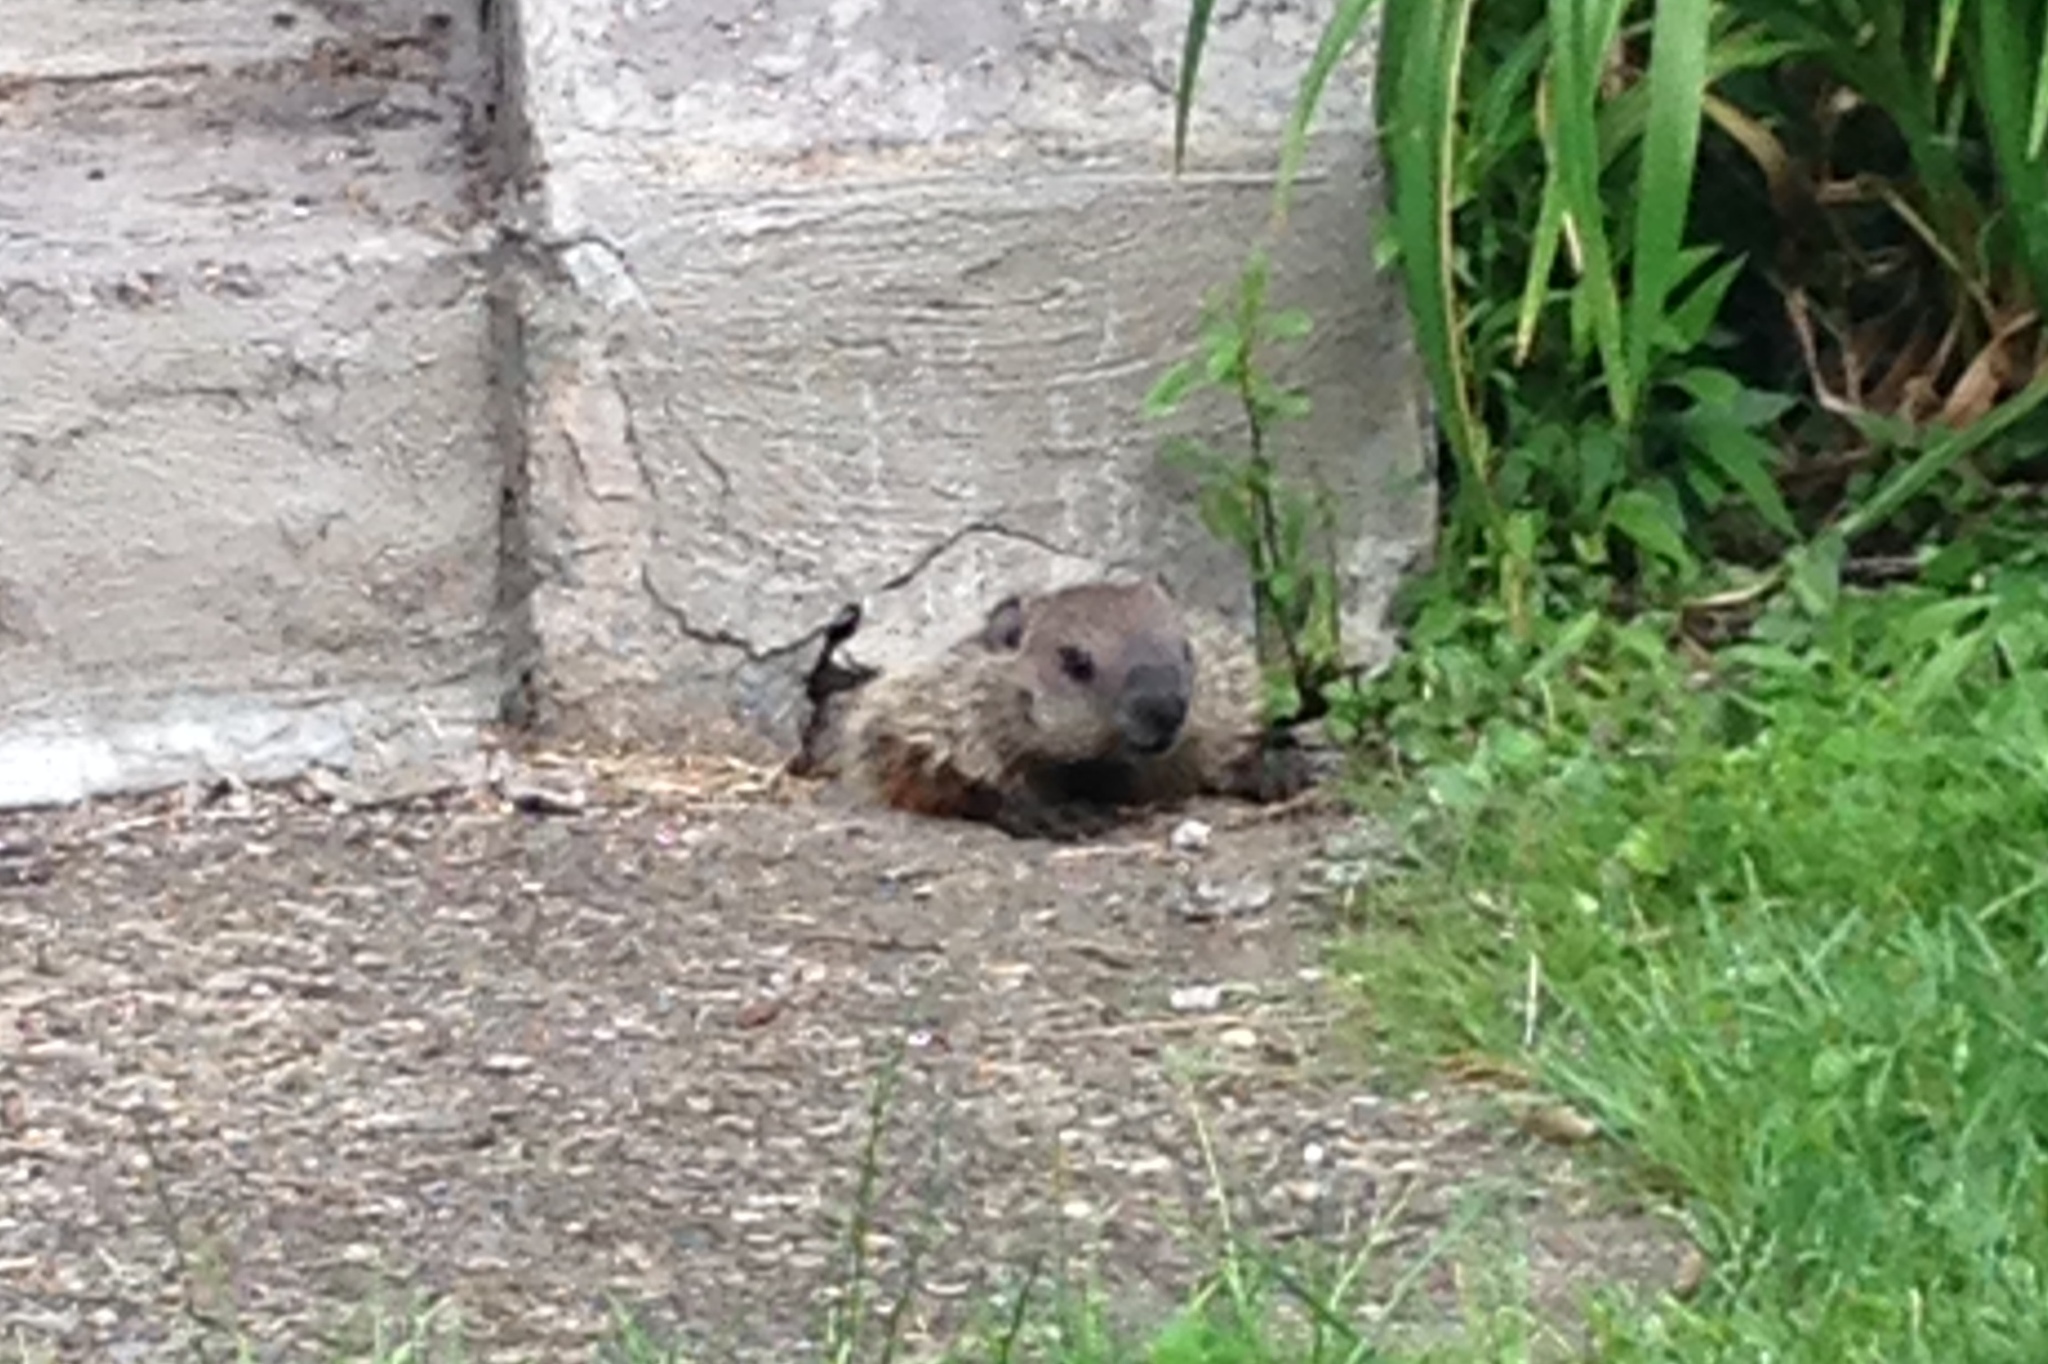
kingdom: Animalia
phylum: Chordata
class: Mammalia
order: Rodentia
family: Sciuridae
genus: Marmota
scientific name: Marmota monax
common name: Groundhog
